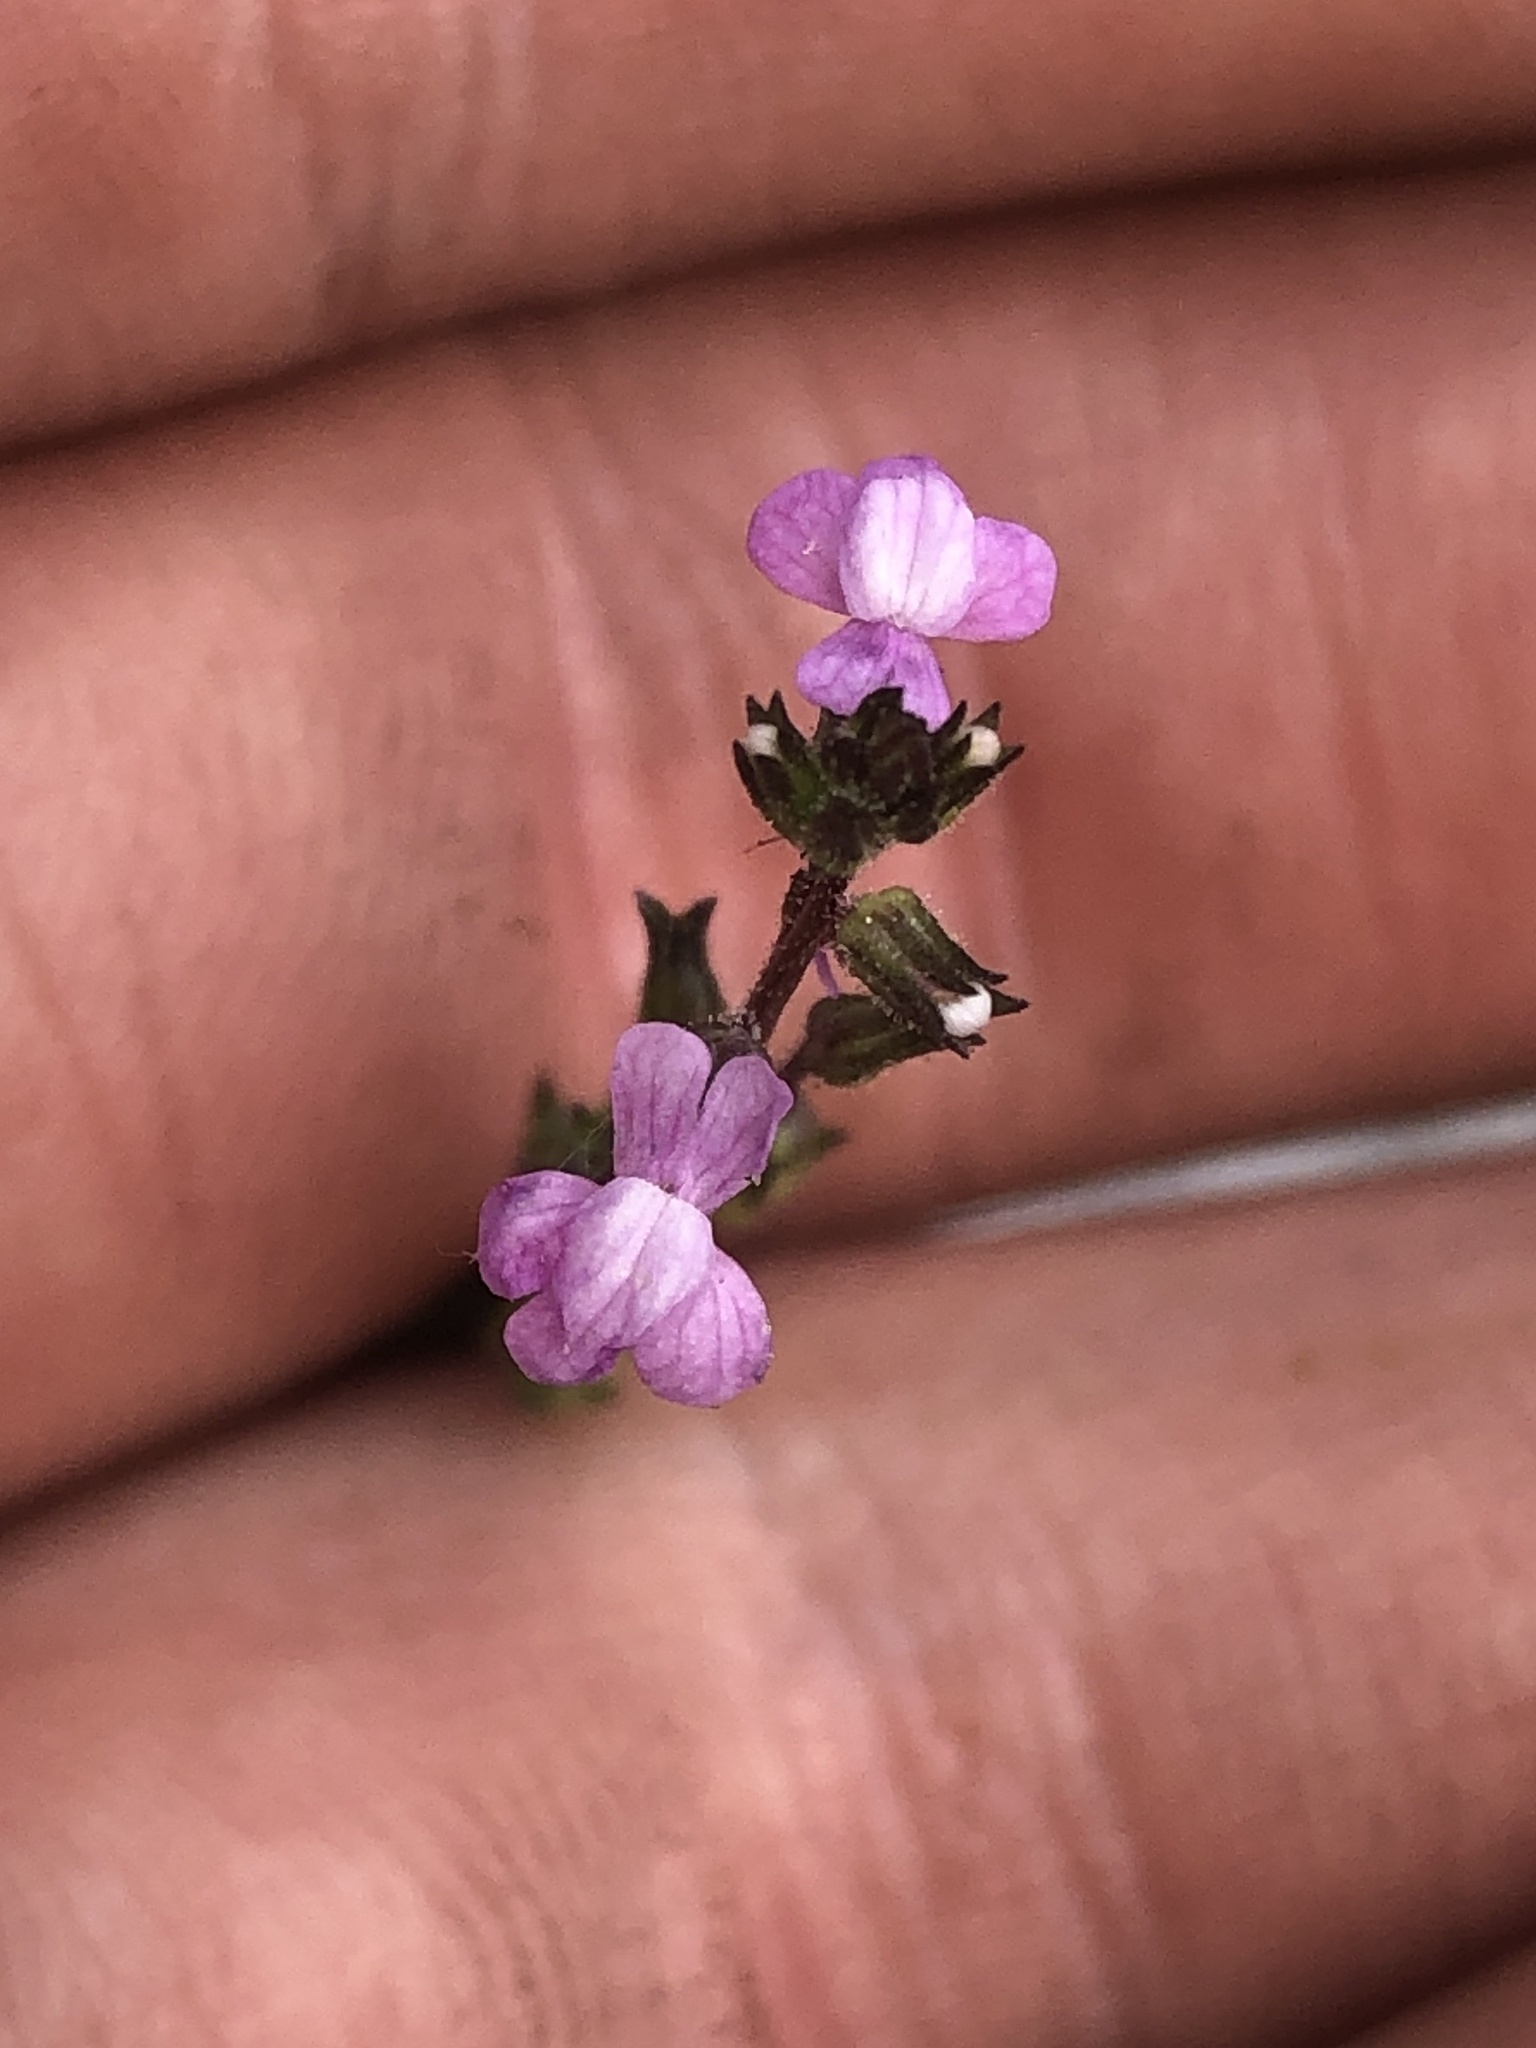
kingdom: Plantae
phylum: Tracheophyta
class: Magnoliopsida
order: Lamiales
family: Plantaginaceae
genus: Nuttallanthus
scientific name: Nuttallanthus canadensis
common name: Blue toadflax
